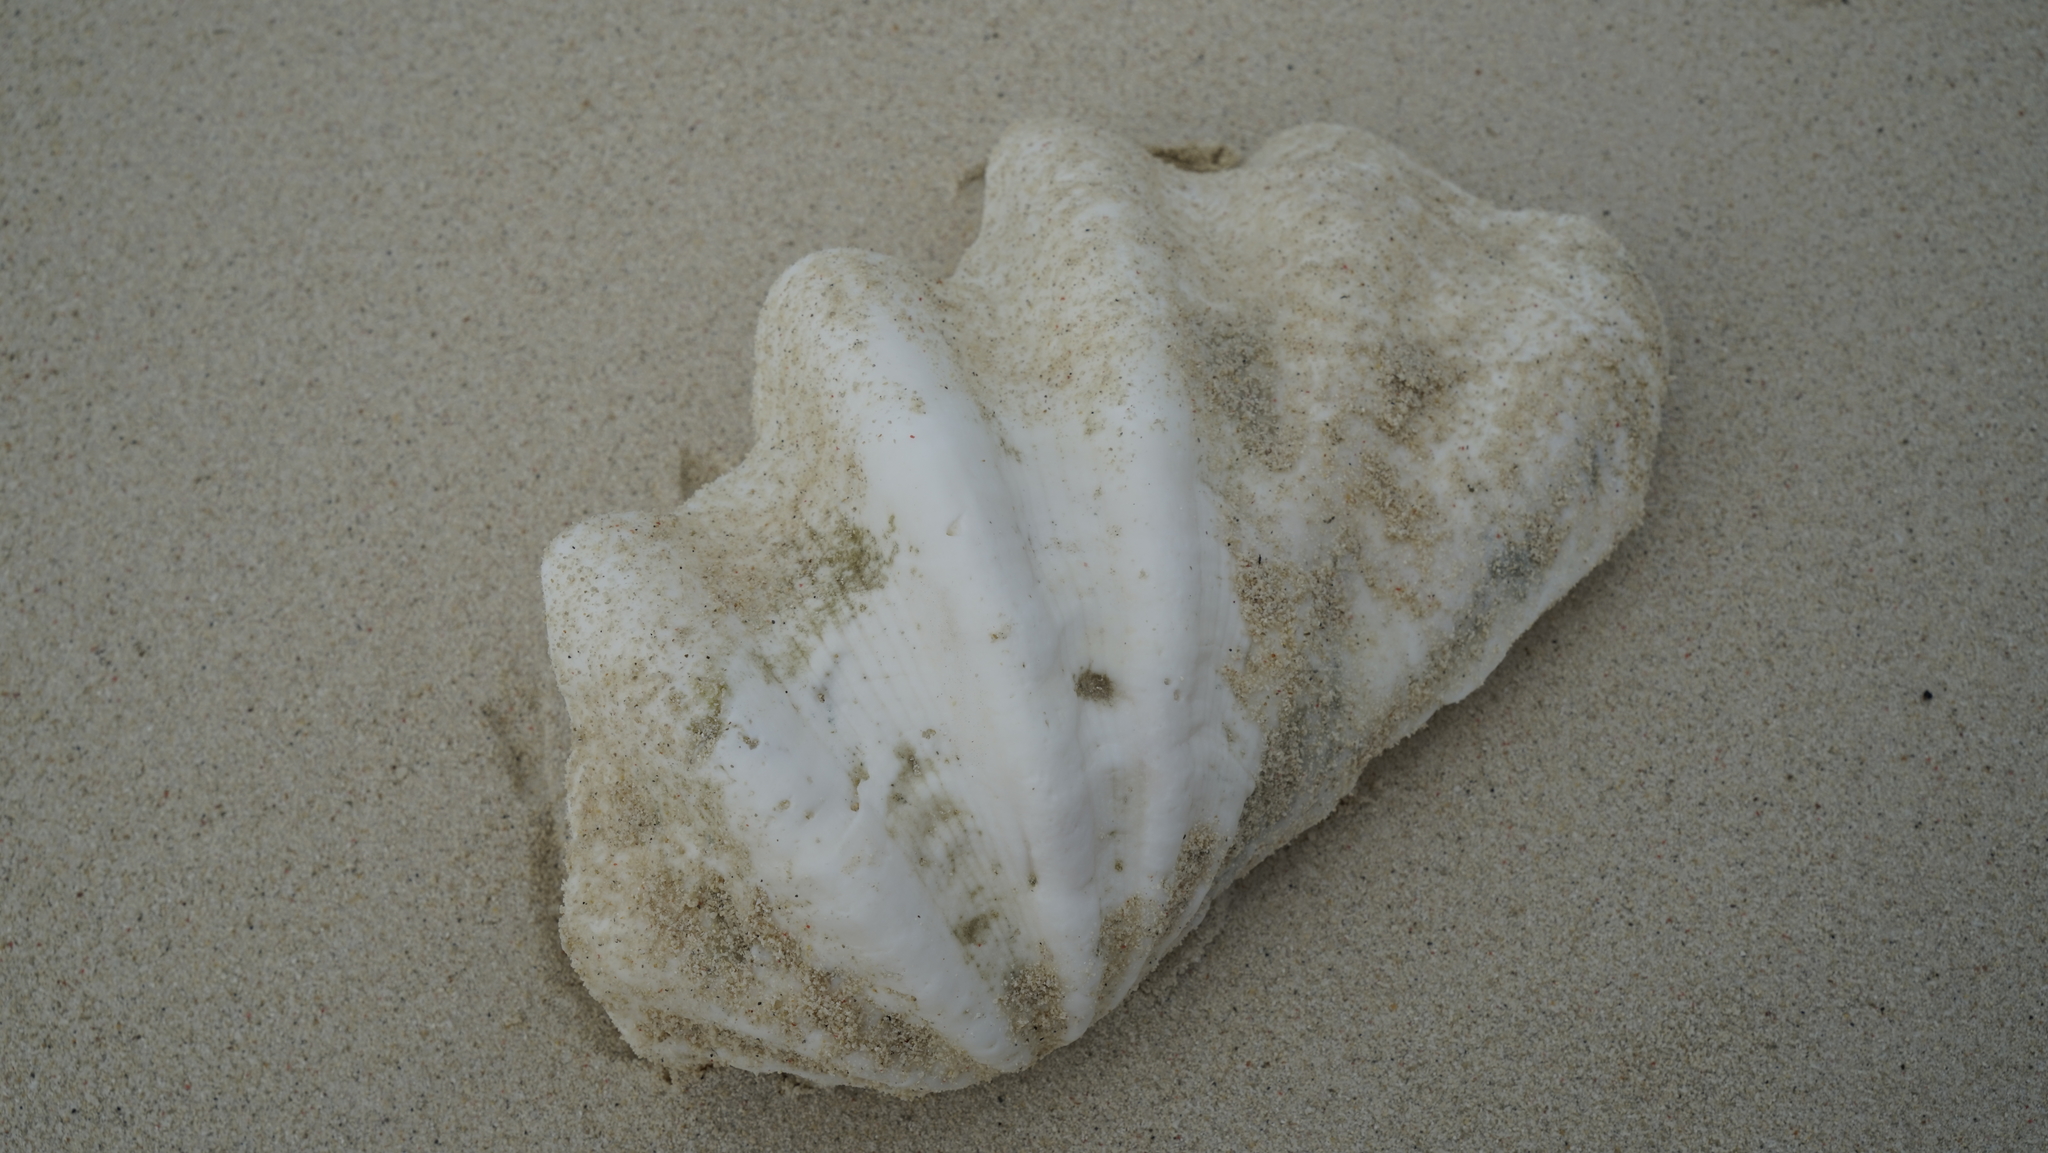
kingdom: Animalia
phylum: Mollusca
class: Bivalvia
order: Cardiida
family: Cardiidae
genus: Tridacna
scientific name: Tridacna crocea
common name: Boring clam
